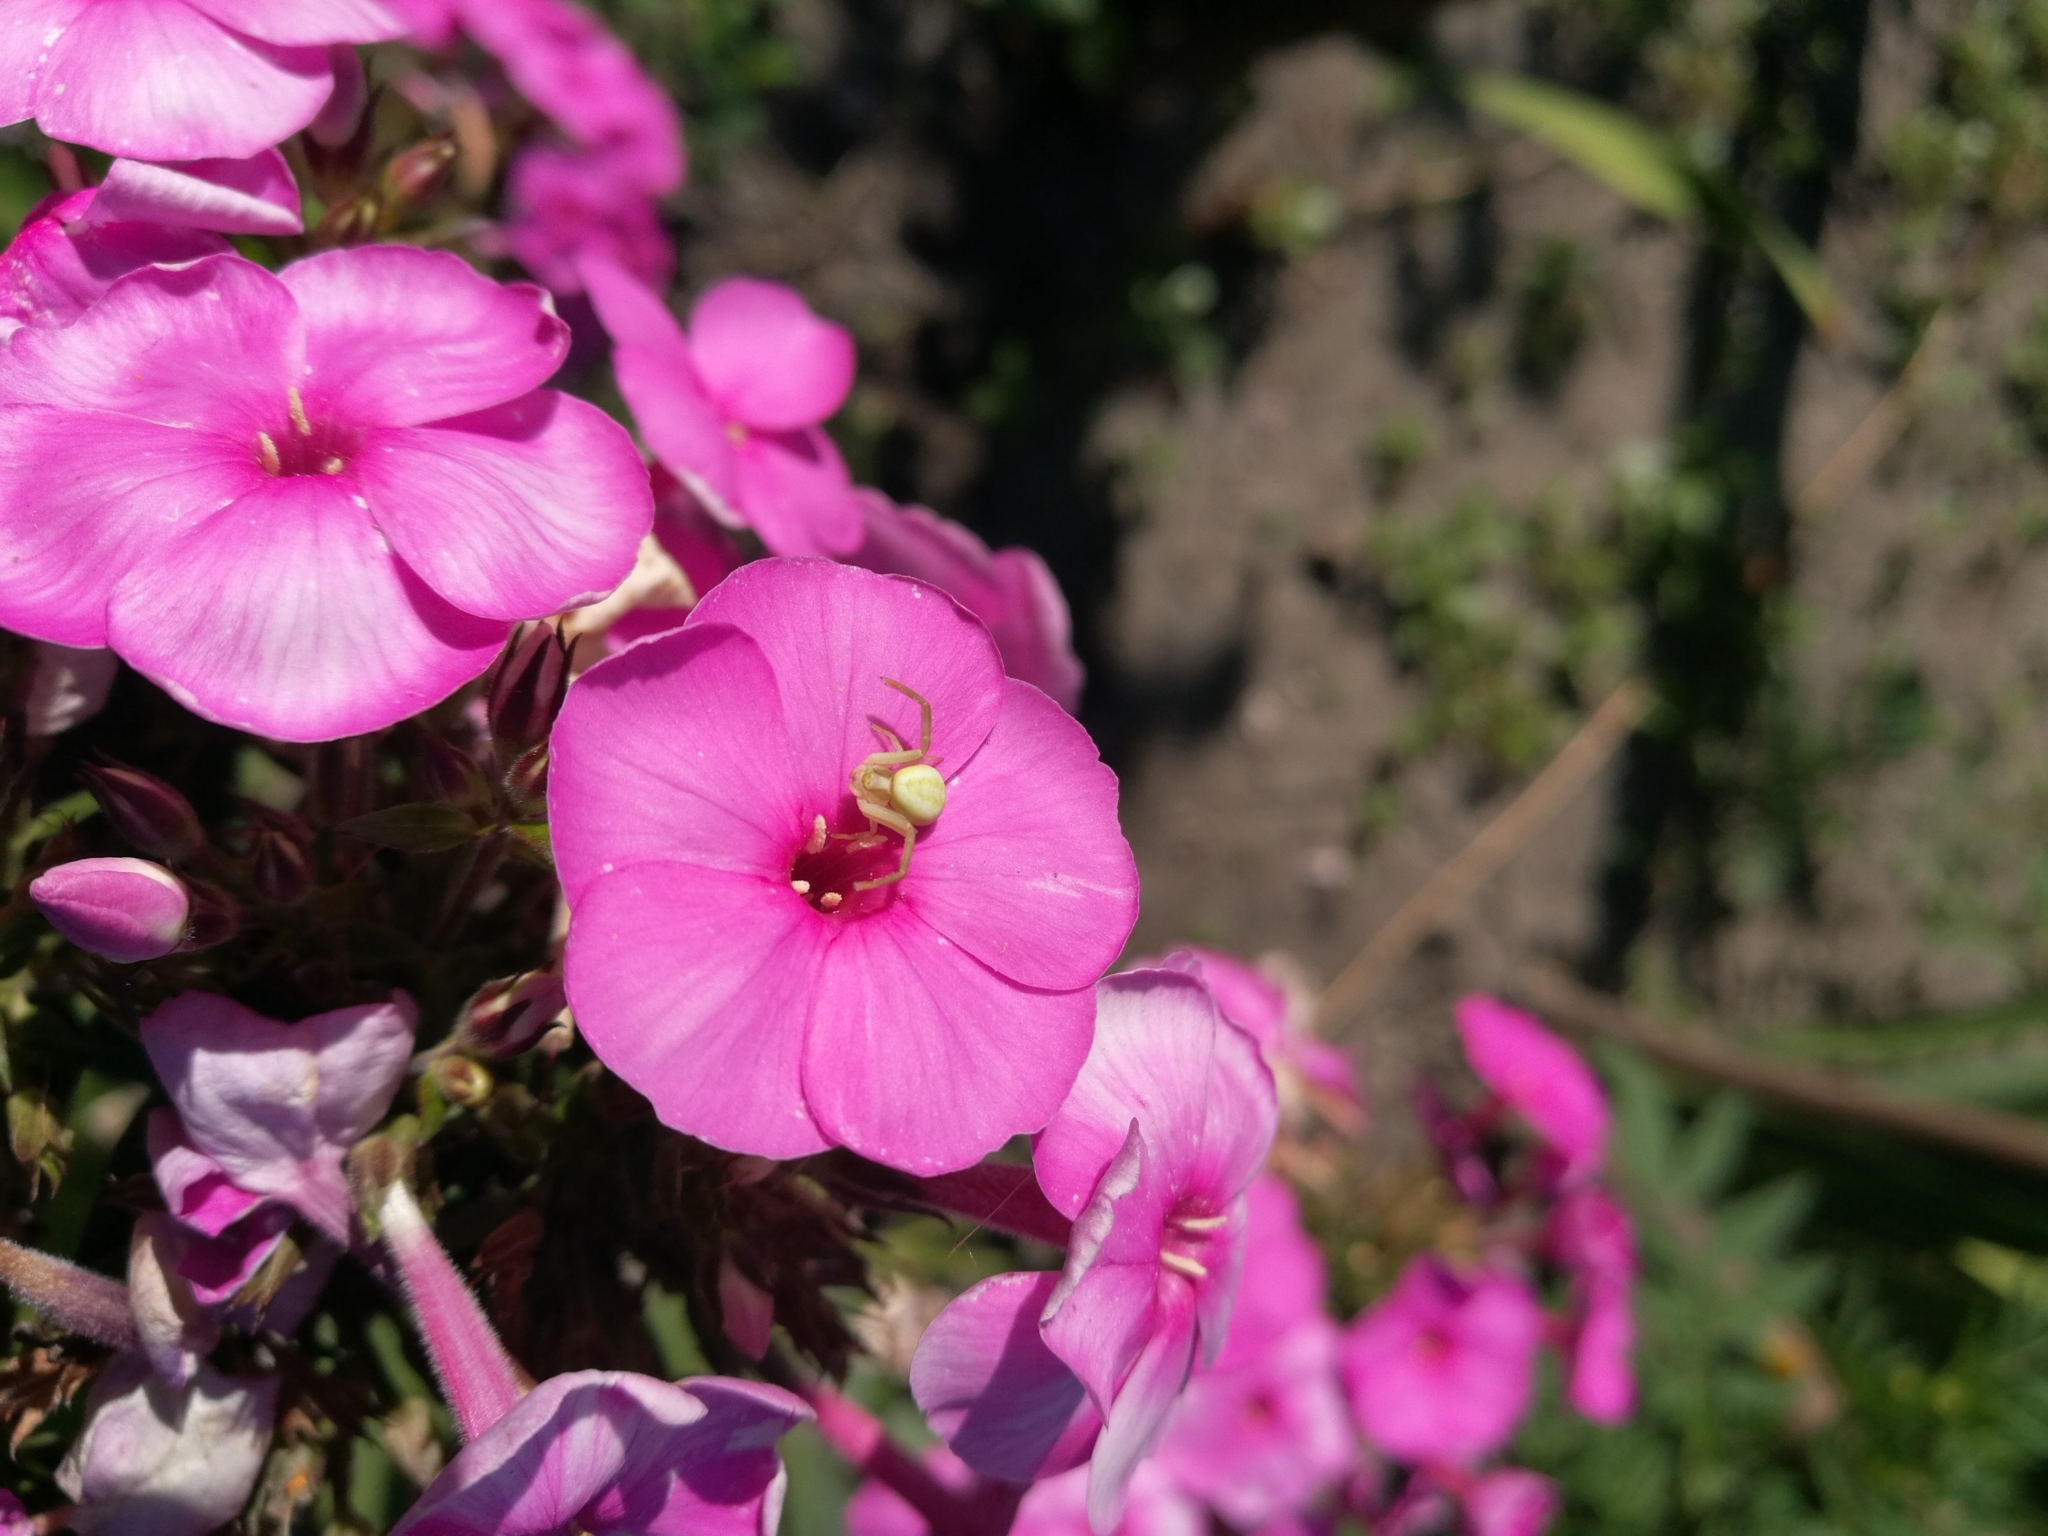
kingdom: Animalia
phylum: Arthropoda
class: Arachnida
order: Araneae
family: Thomisidae
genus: Misumena
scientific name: Misumena vatia
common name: Goldenrod crab spider
